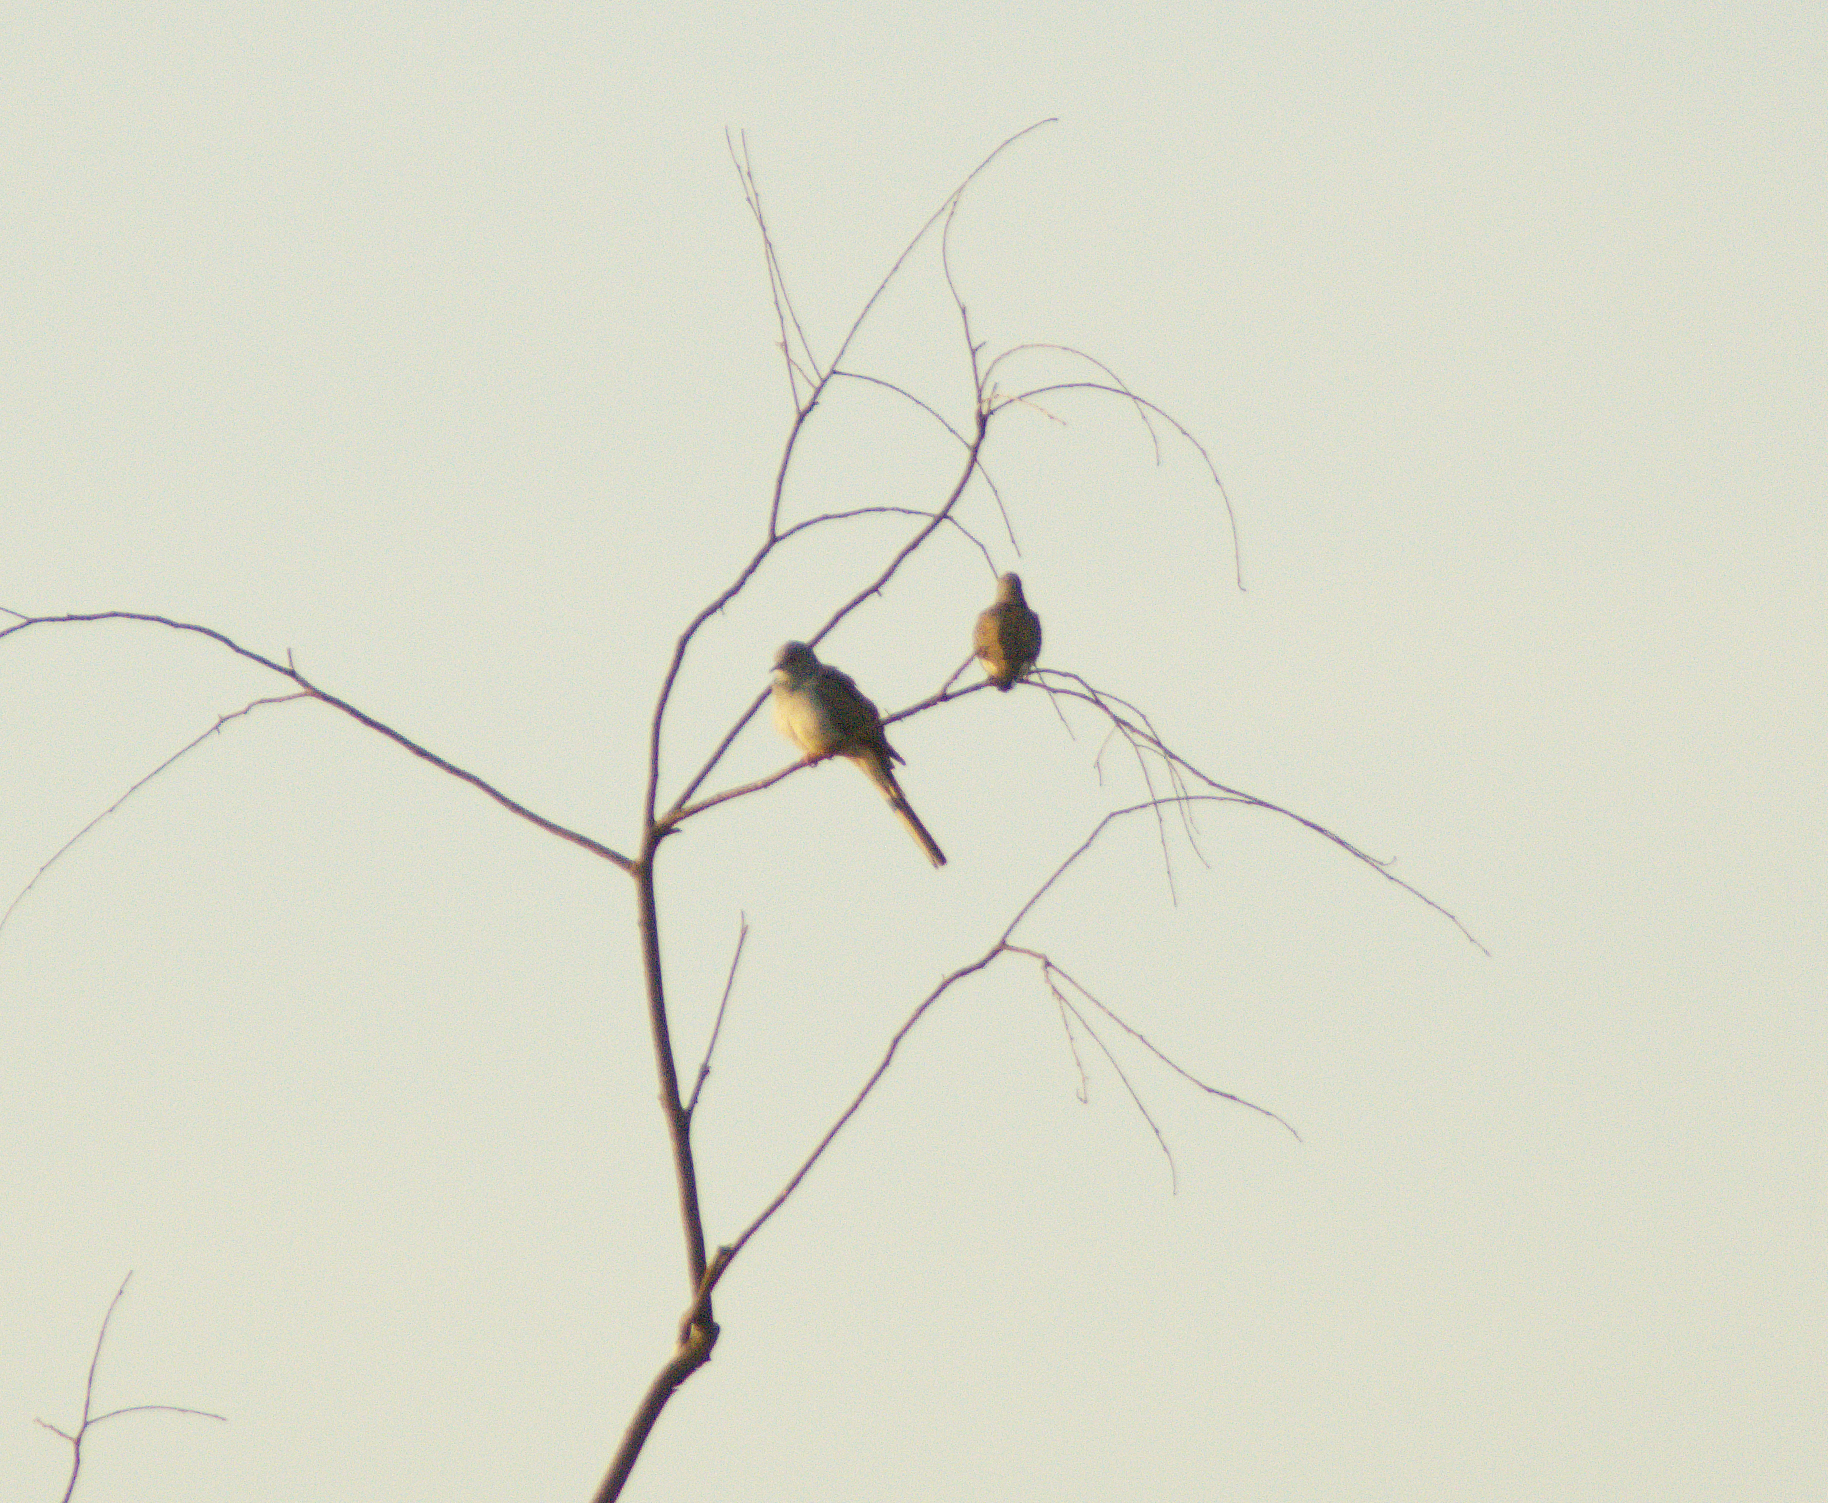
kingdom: Animalia
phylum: Chordata
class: Aves
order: Columbiformes
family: Columbidae
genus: Geopelia
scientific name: Geopelia cuneata
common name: Diamond dove
